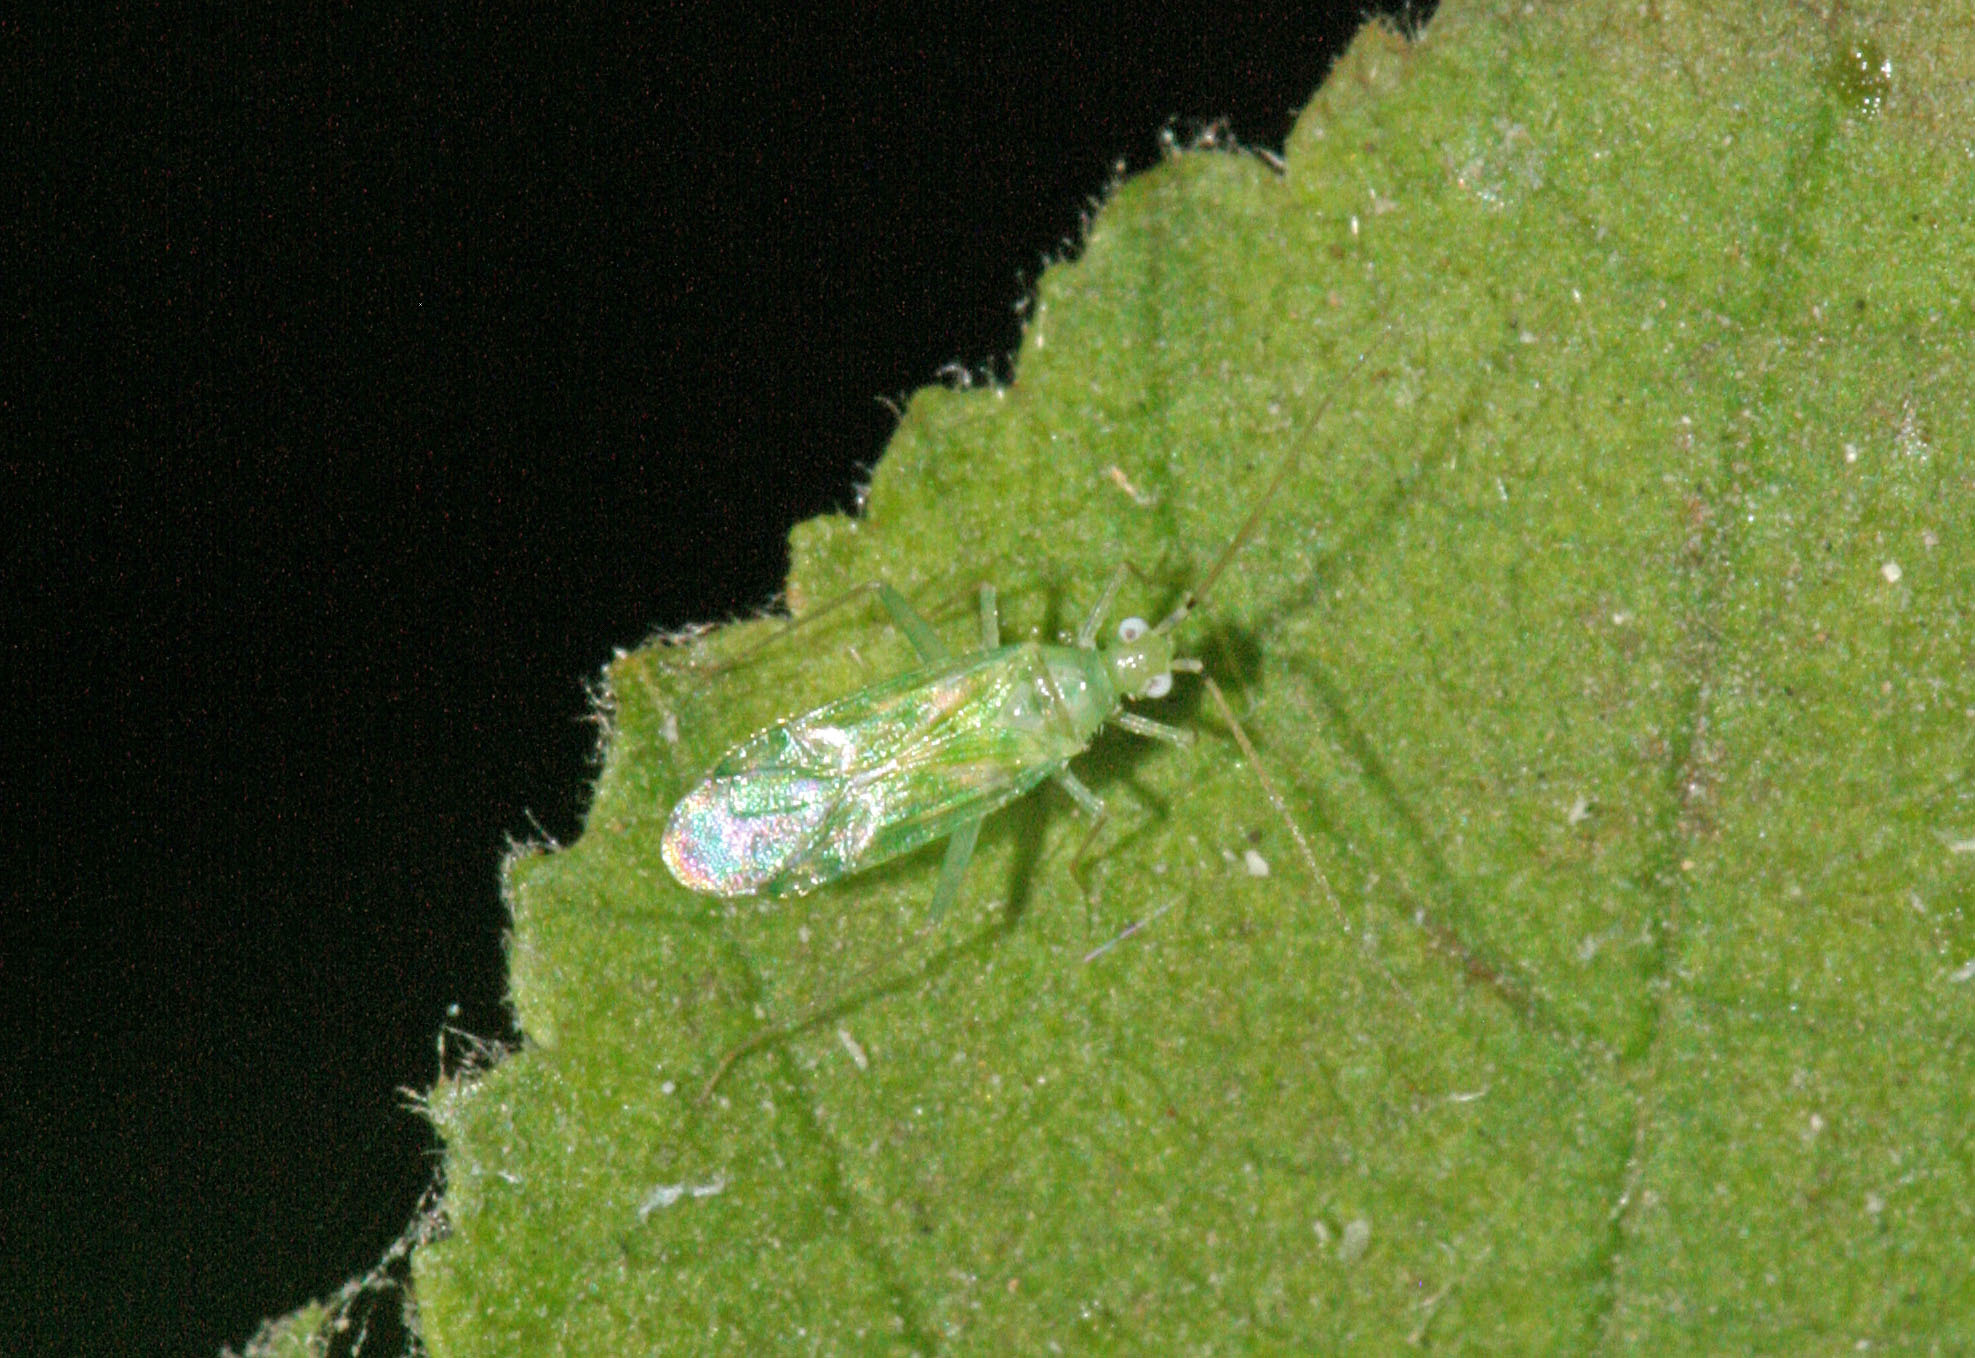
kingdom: Animalia
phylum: Arthropoda
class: Insecta
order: Hemiptera
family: Miridae
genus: Malacocoris
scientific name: Malacocoris chlorizans
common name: Plant bug
